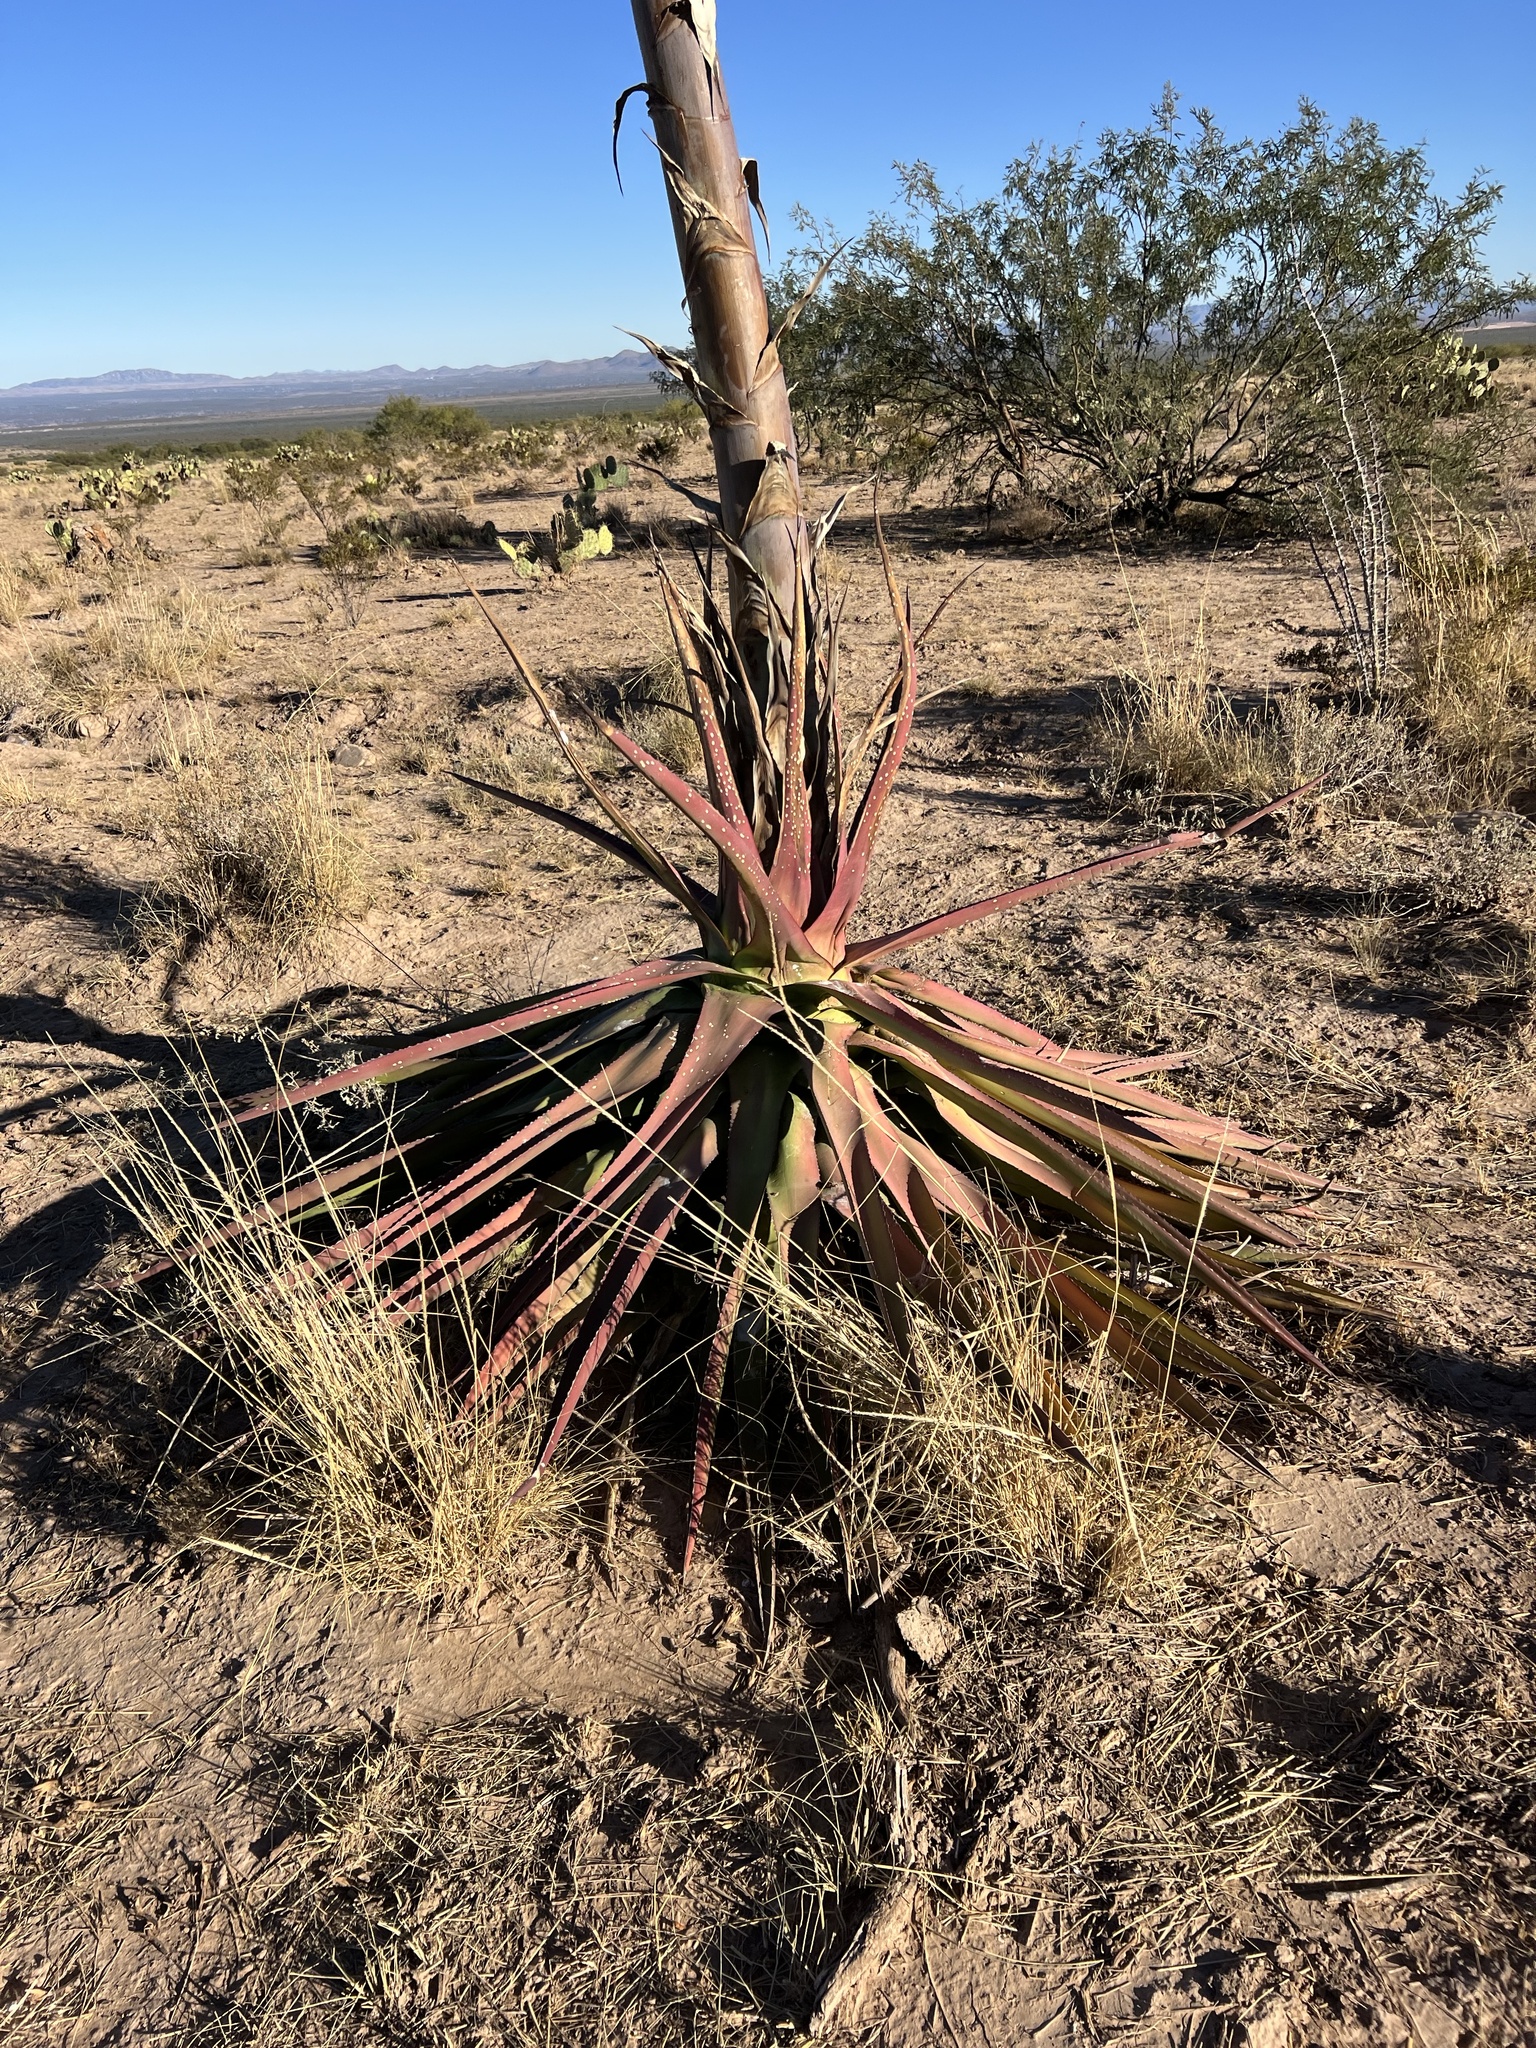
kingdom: Plantae
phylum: Tracheophyta
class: Liliopsida
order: Asparagales
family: Asparagaceae
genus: Agave
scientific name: Agave palmeri
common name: Palmer agave
